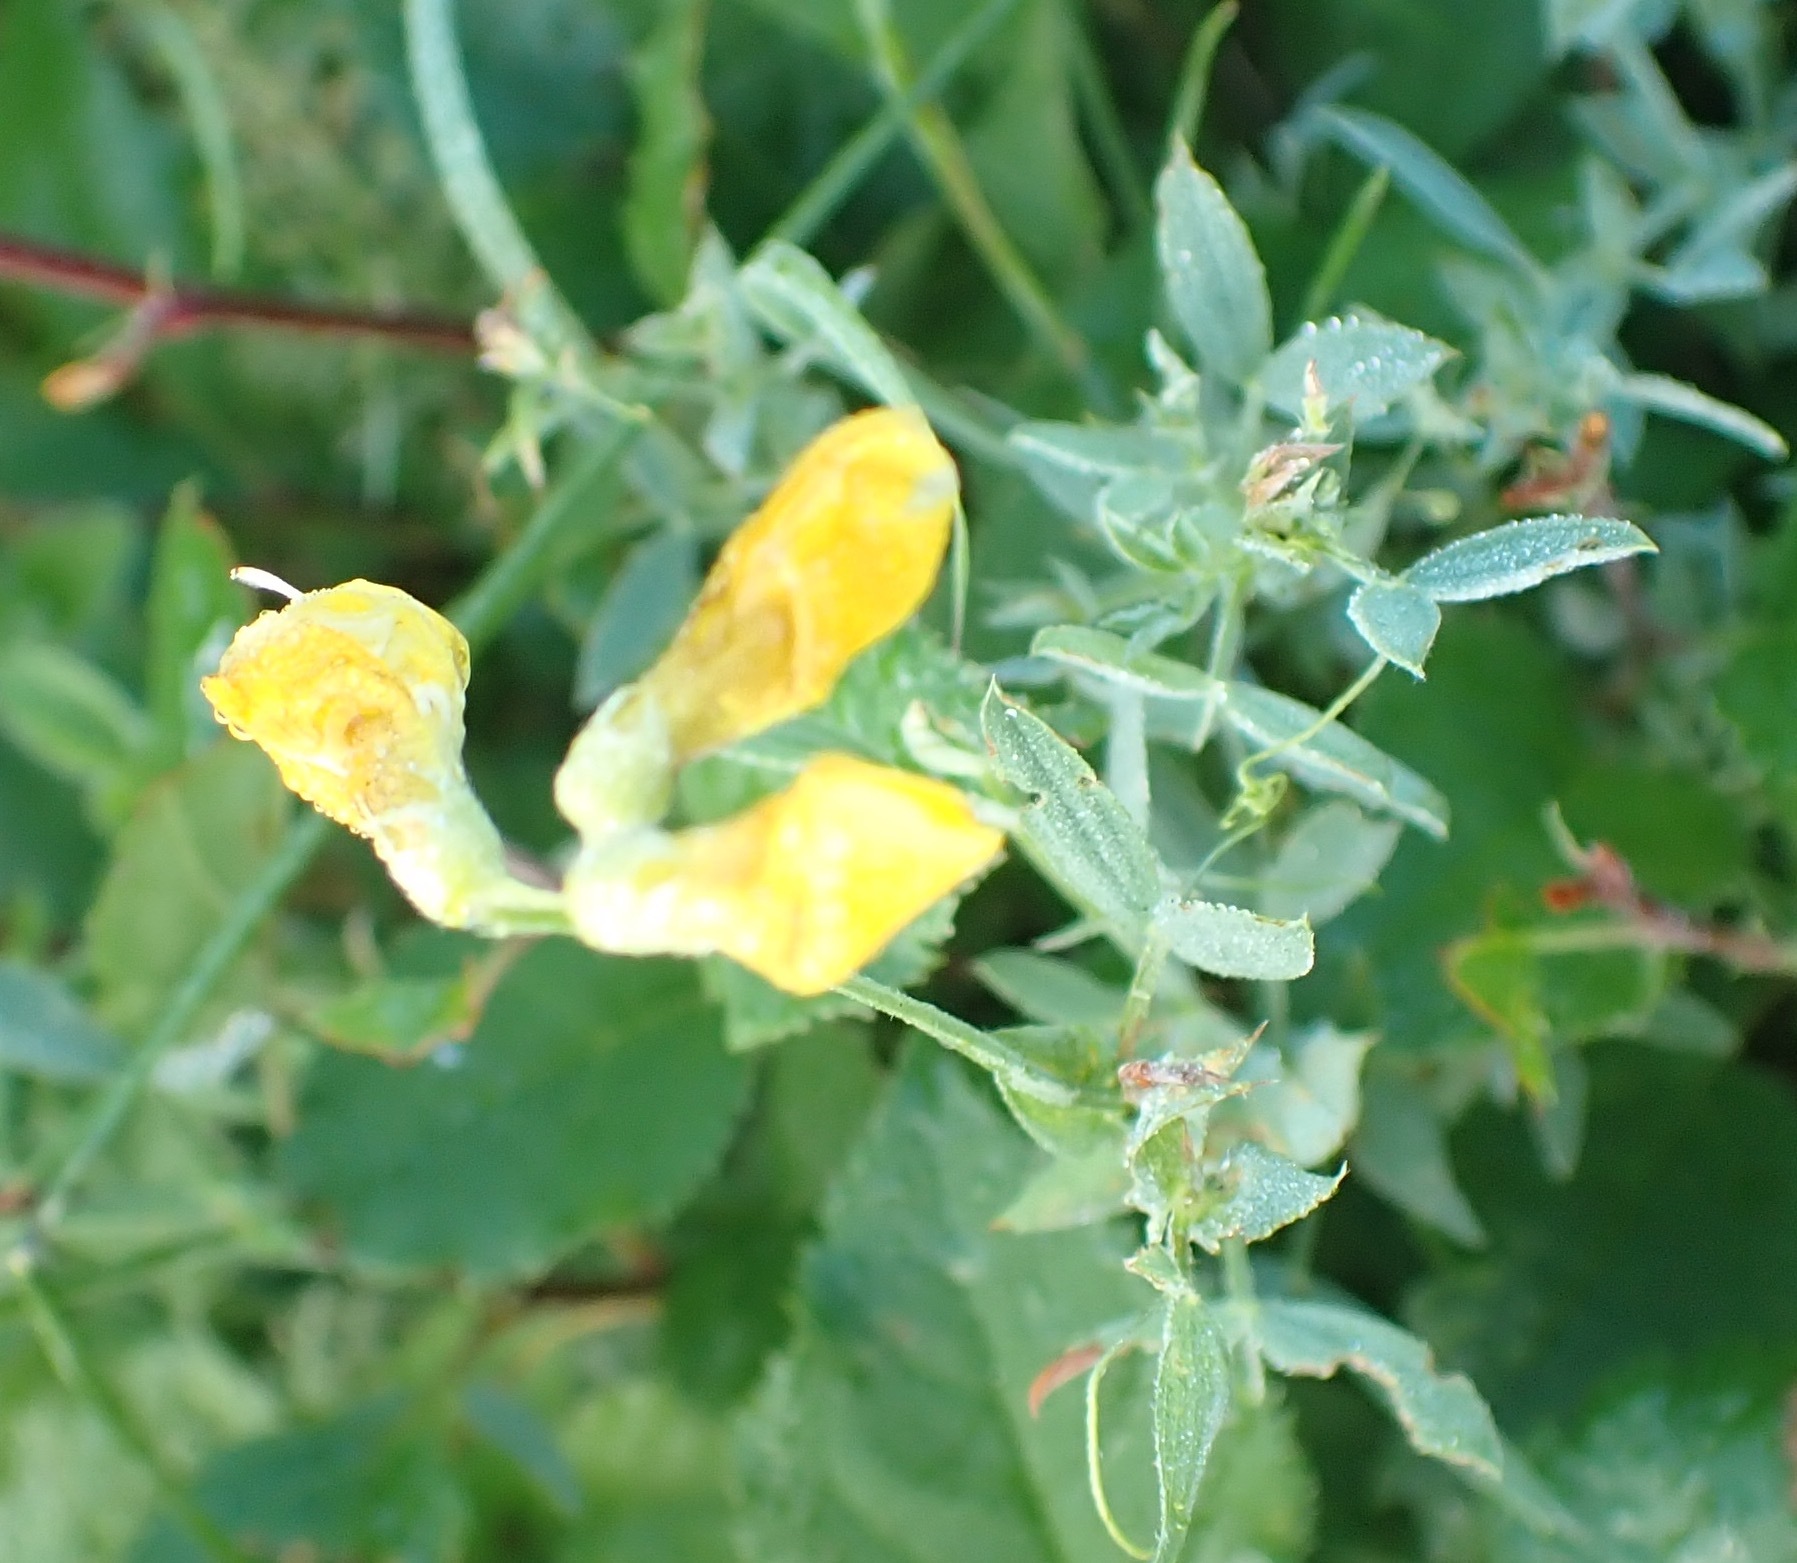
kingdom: Plantae
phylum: Tracheophyta
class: Magnoliopsida
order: Fabales
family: Fabaceae
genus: Lathyrus
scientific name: Lathyrus pratensis
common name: Meadow vetchling
